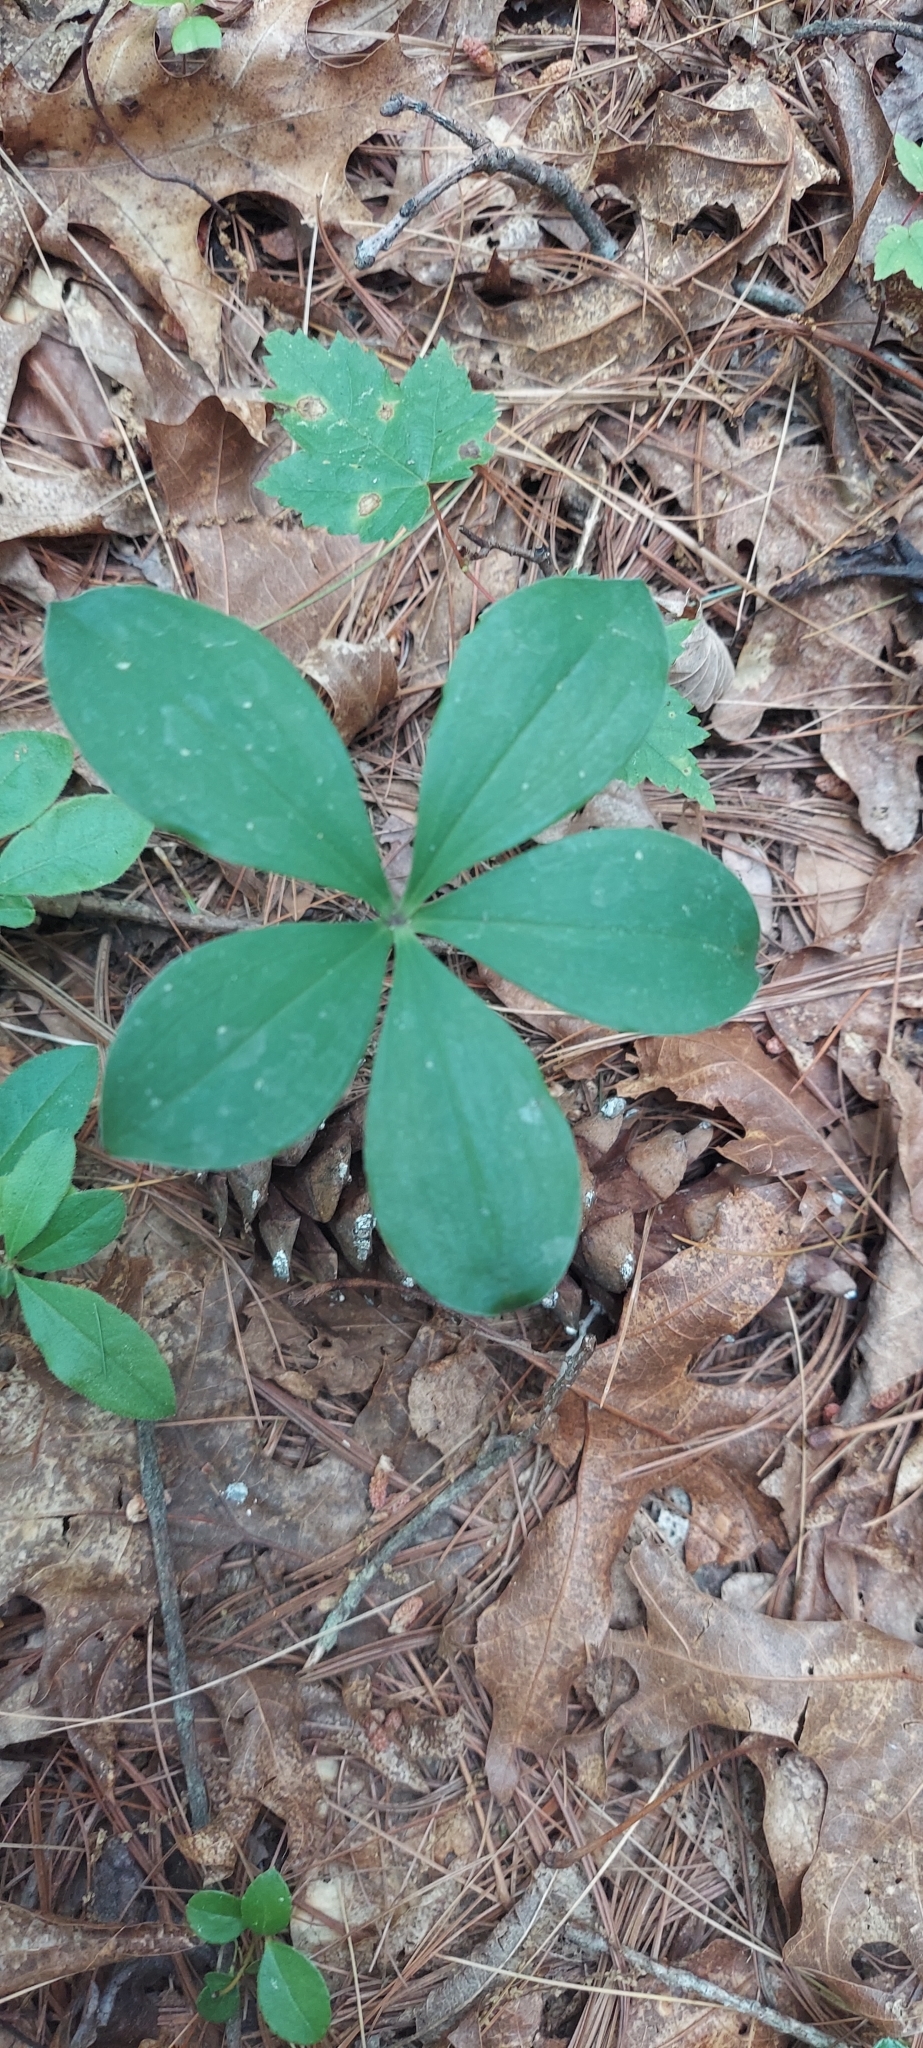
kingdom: Plantae
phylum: Tracheophyta
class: Liliopsida
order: Asparagales
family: Orchidaceae
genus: Isotria
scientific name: Isotria verticillata
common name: Large whorled pogonia
